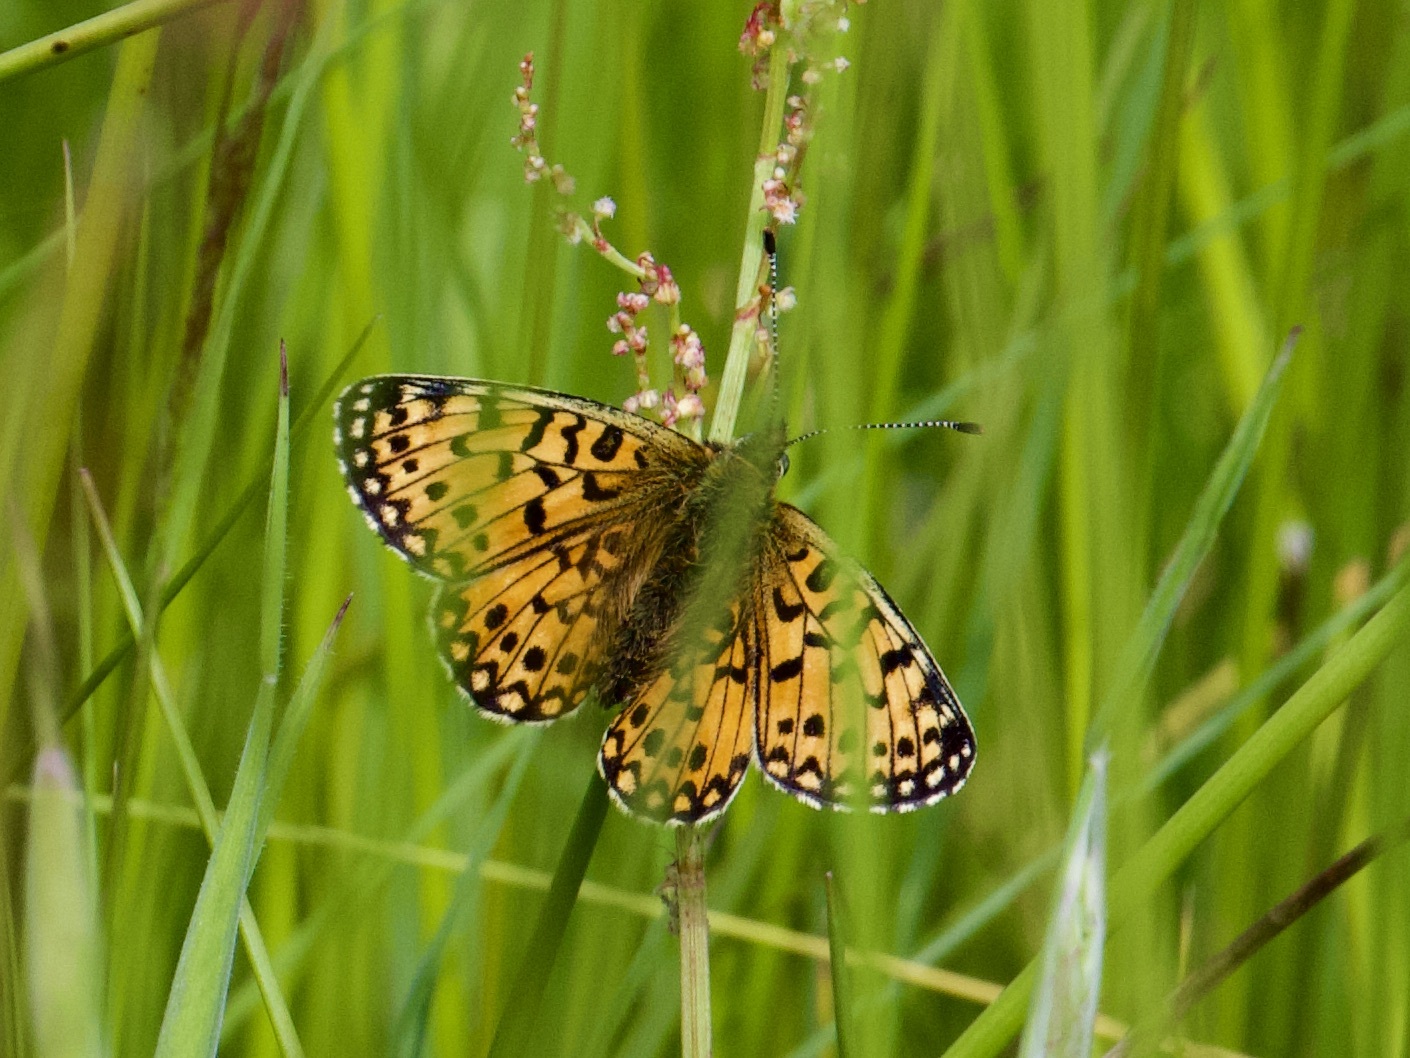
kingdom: Animalia
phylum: Arthropoda
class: Insecta
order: Lepidoptera
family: Nymphalidae
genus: Boloria
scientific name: Boloria selene
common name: Small pearl-bordered fritillary
